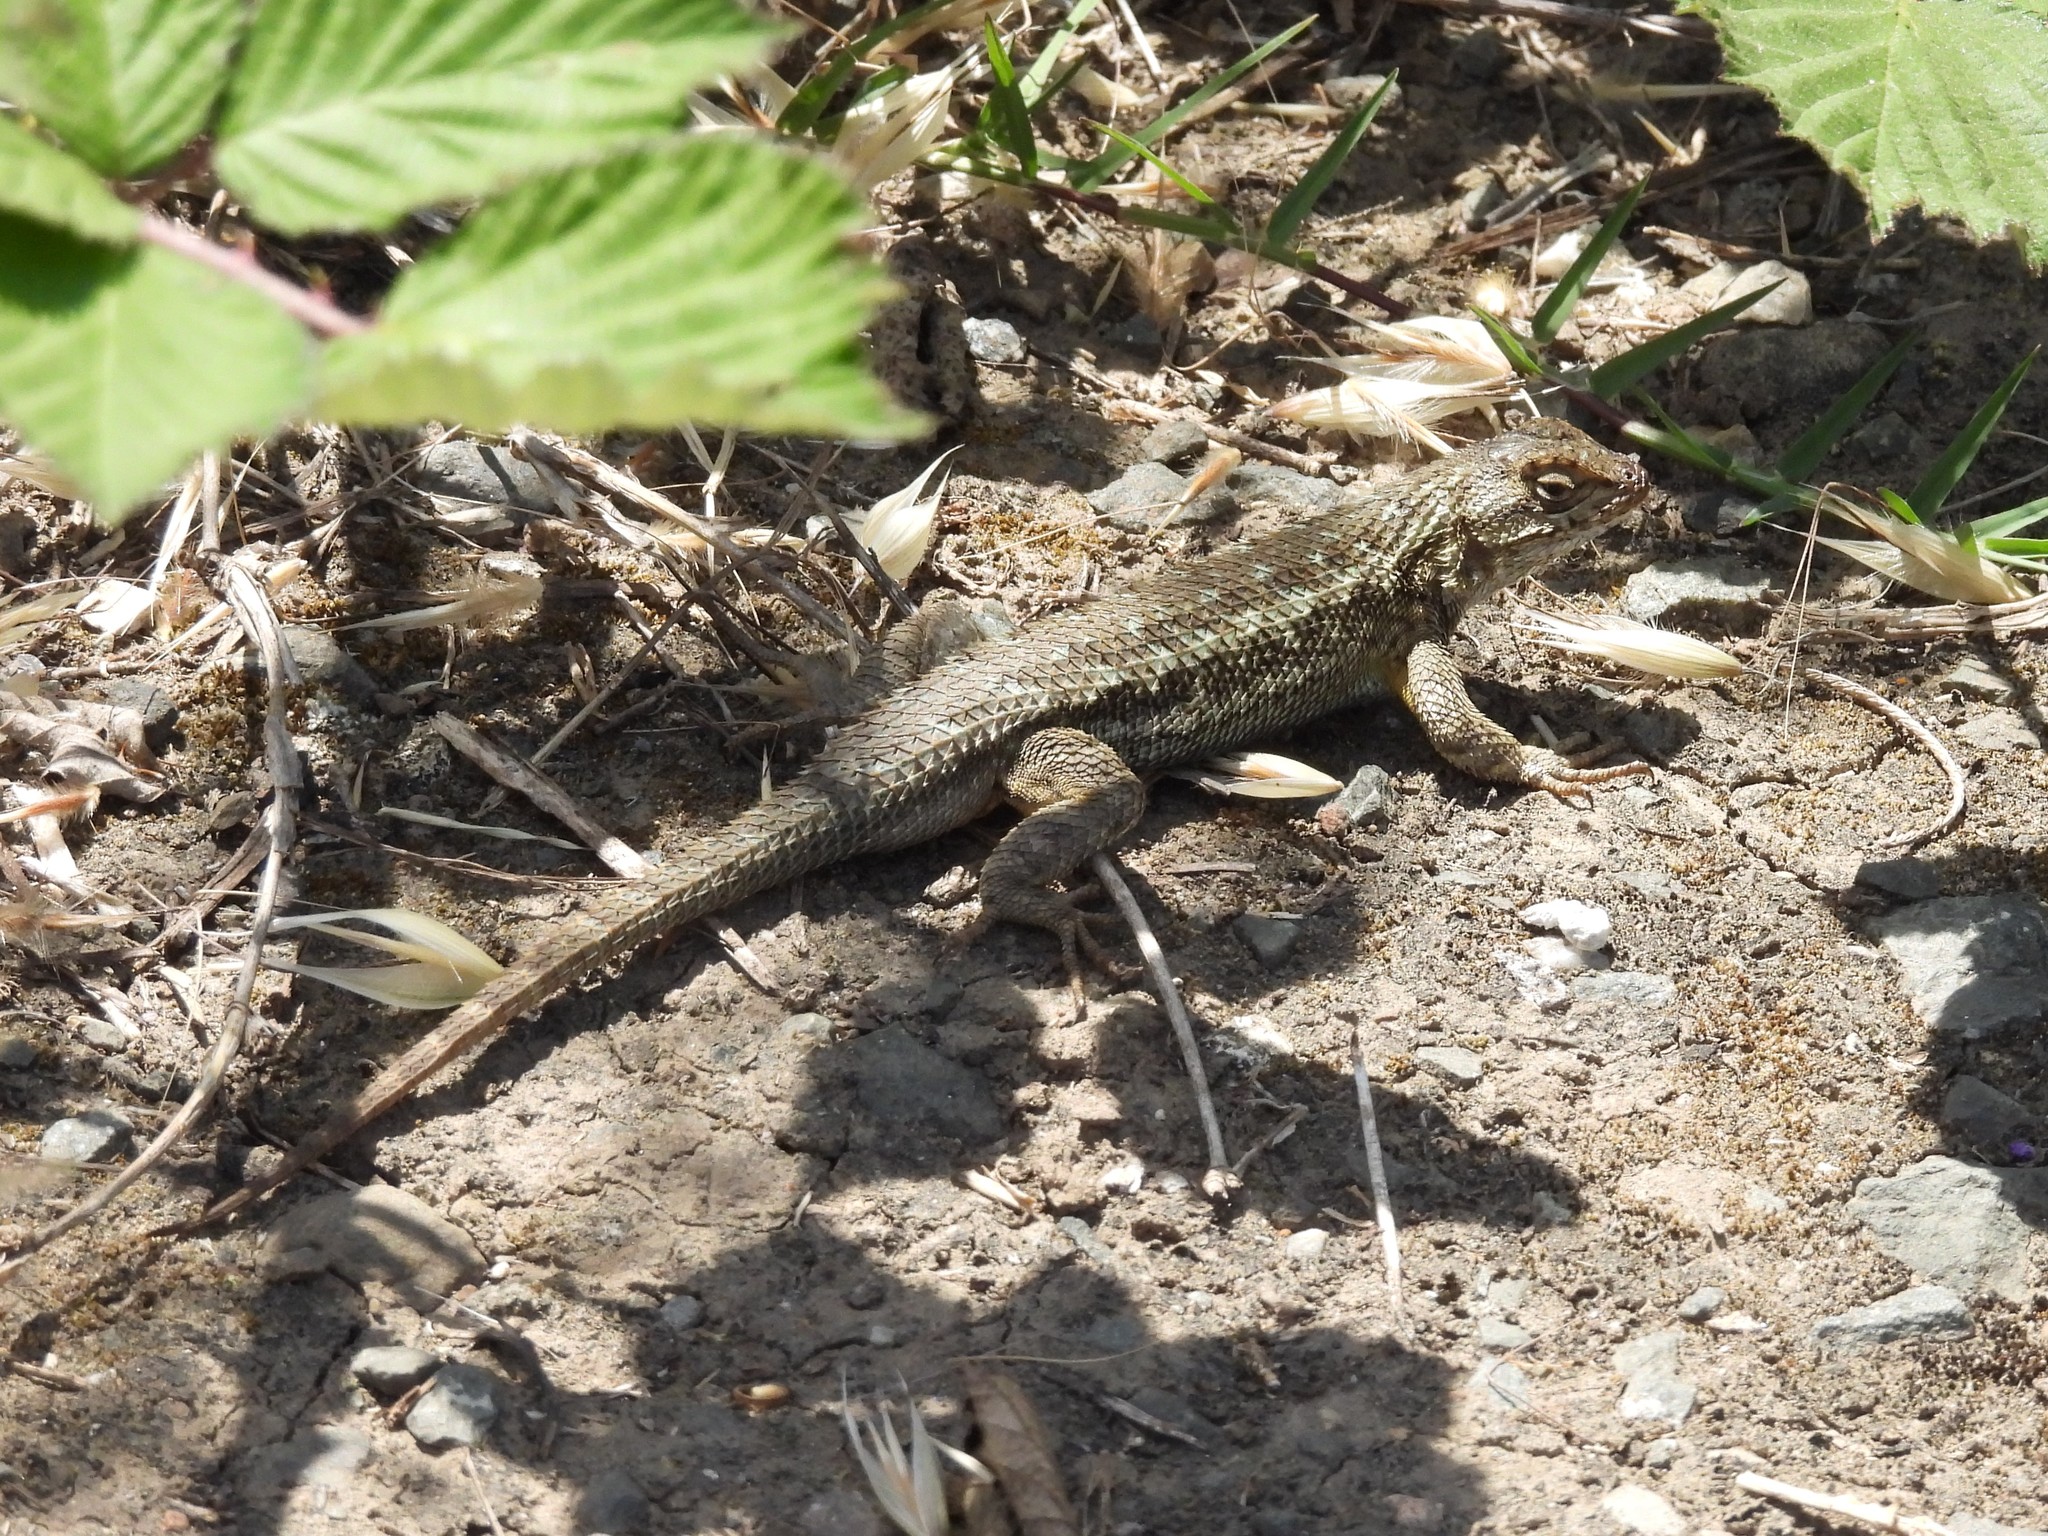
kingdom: Animalia
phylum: Chordata
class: Squamata
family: Phrynosomatidae
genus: Sceloporus
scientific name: Sceloporus occidentalis
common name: Western fence lizard
